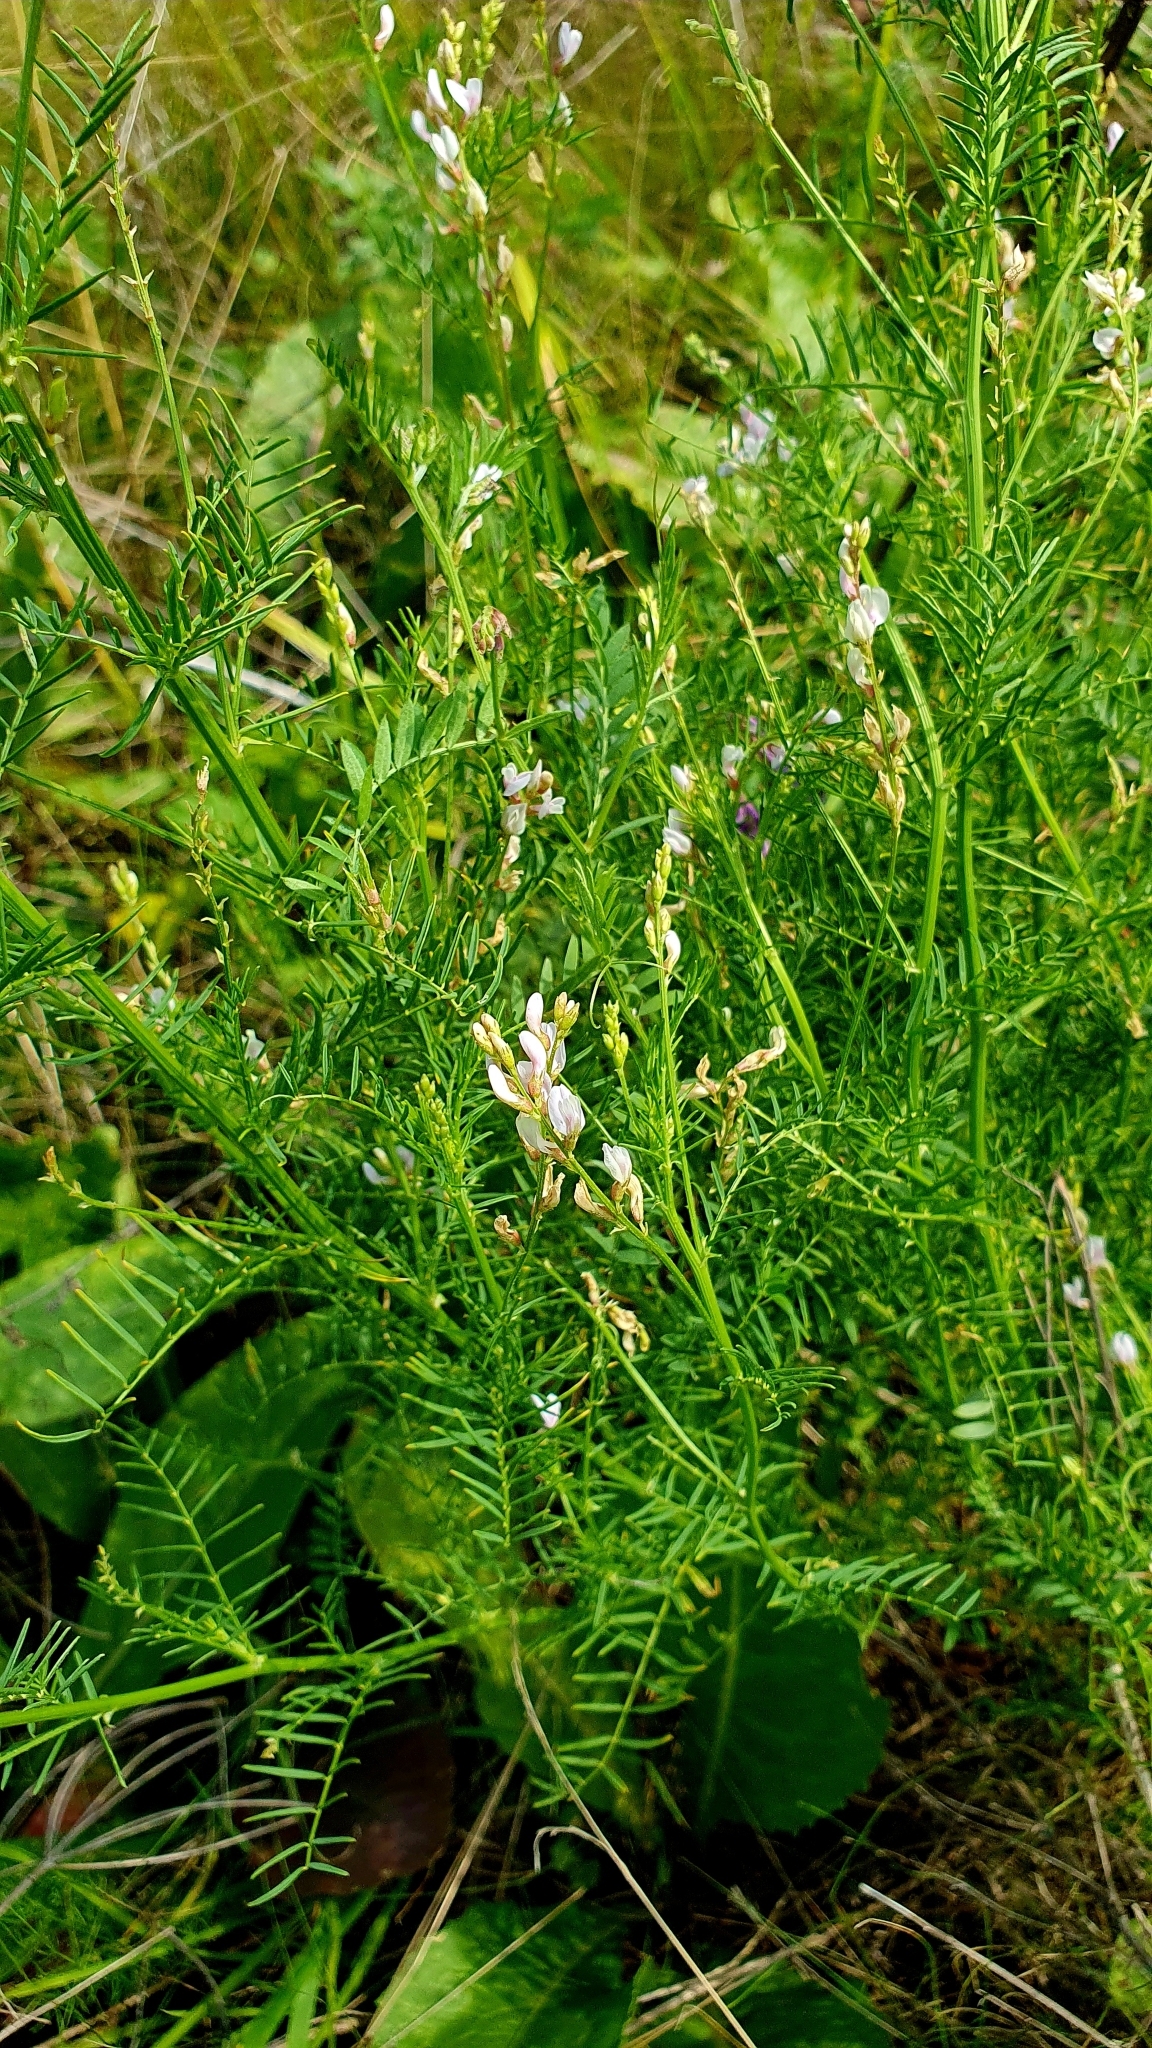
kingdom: Plantae
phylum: Tracheophyta
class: Magnoliopsida
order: Fabales
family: Fabaceae
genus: Astragalus
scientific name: Astragalus sulcatus
